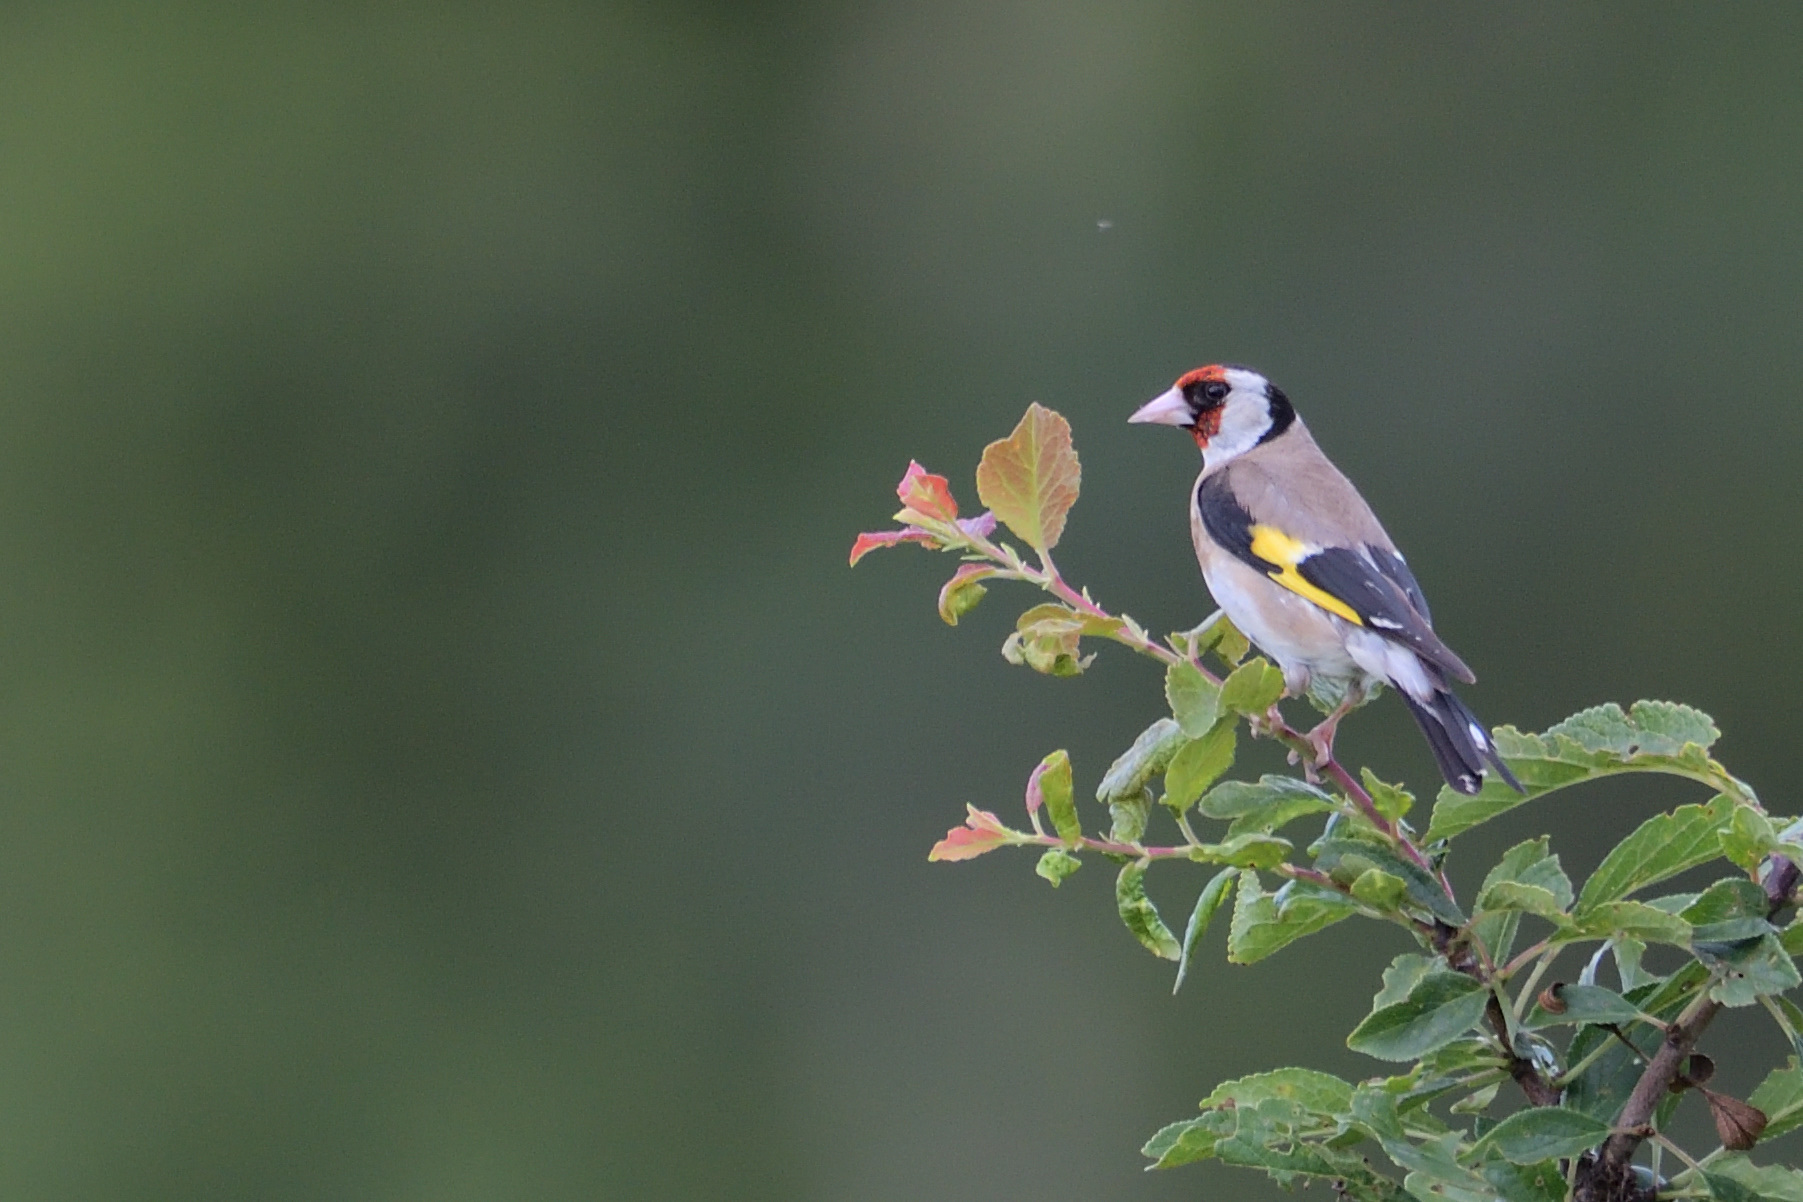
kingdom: Animalia
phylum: Chordata
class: Aves
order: Passeriformes
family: Fringillidae
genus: Carduelis
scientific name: Carduelis carduelis
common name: European goldfinch
